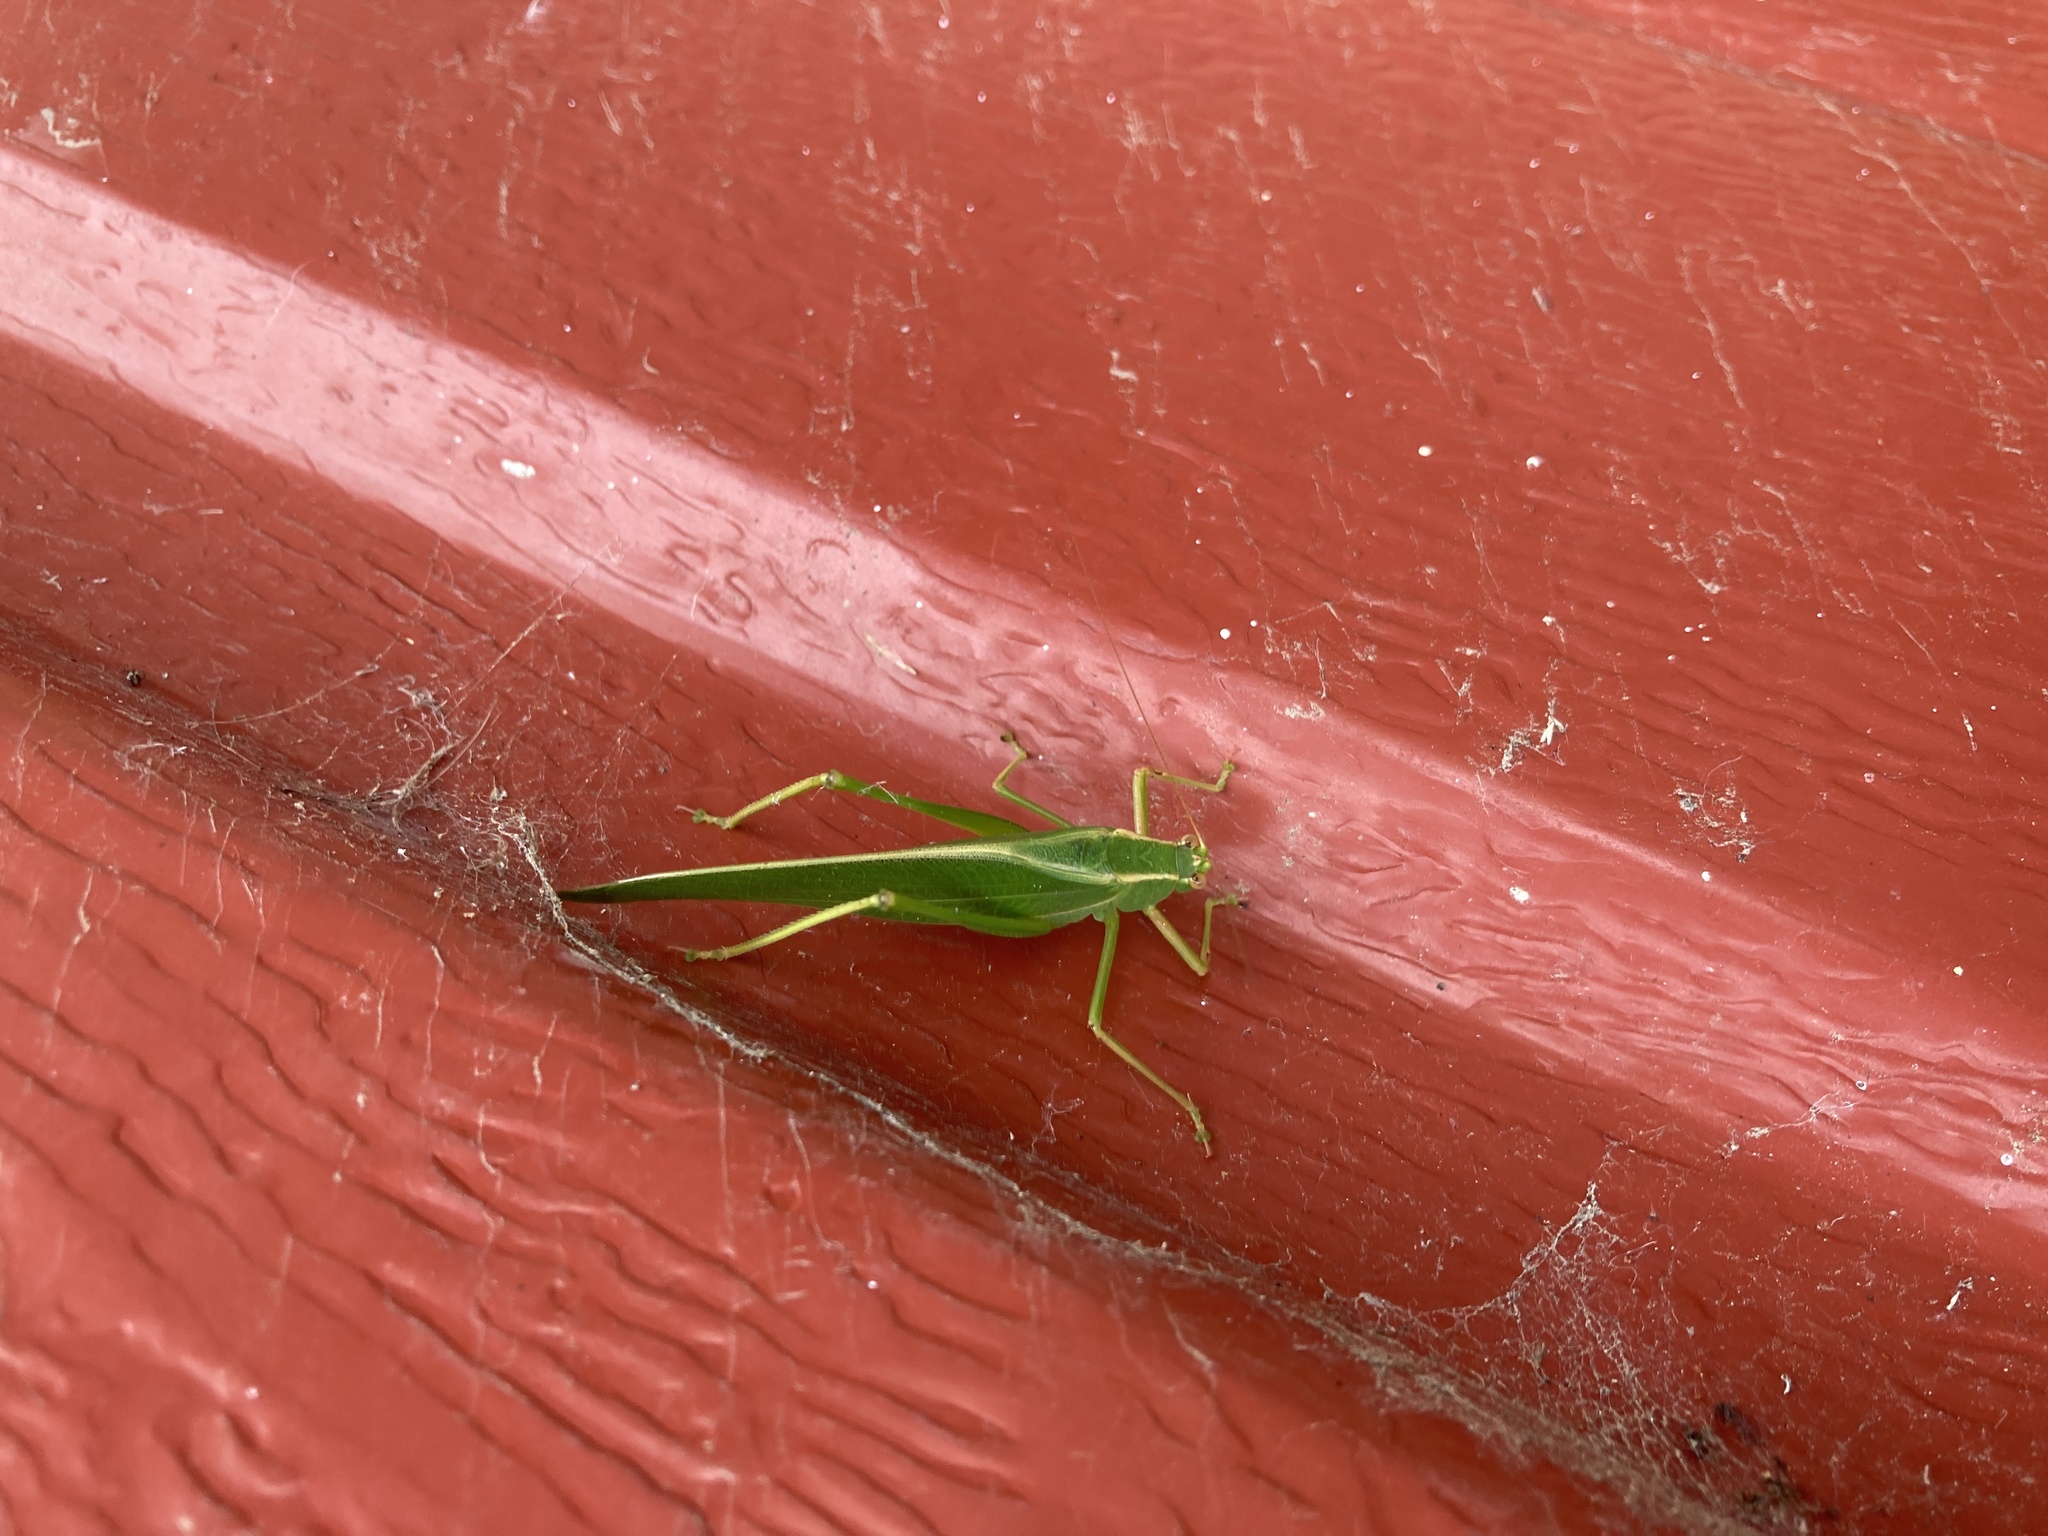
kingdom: Animalia
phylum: Arthropoda
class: Insecta
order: Orthoptera
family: Tettigoniidae
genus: Caedicia
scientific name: Caedicia simplex
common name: Common garden katydid
